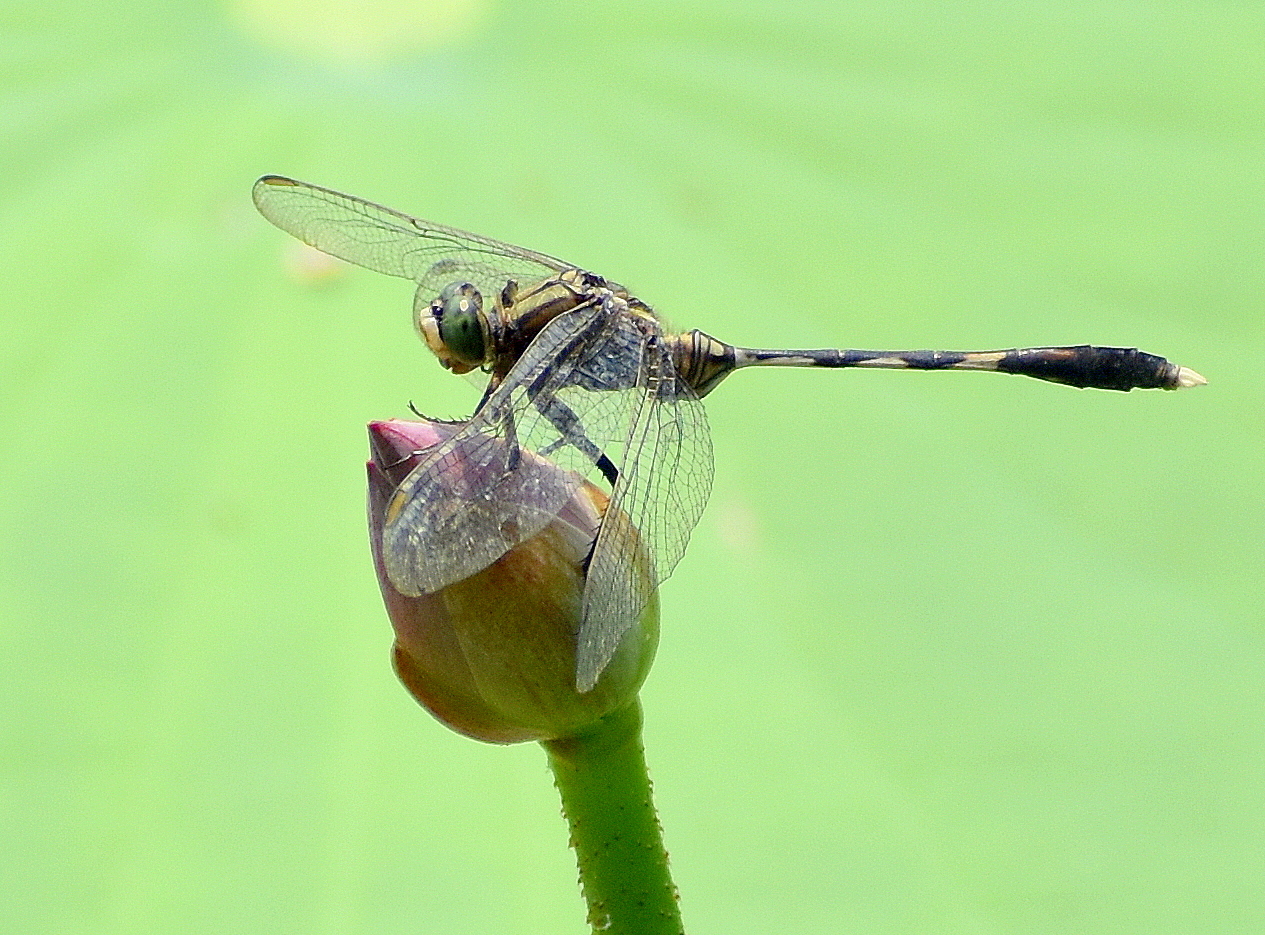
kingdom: Animalia
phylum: Arthropoda
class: Insecta
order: Odonata
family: Libellulidae
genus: Orthetrum
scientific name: Orthetrum sabina
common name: Slender skimmer
